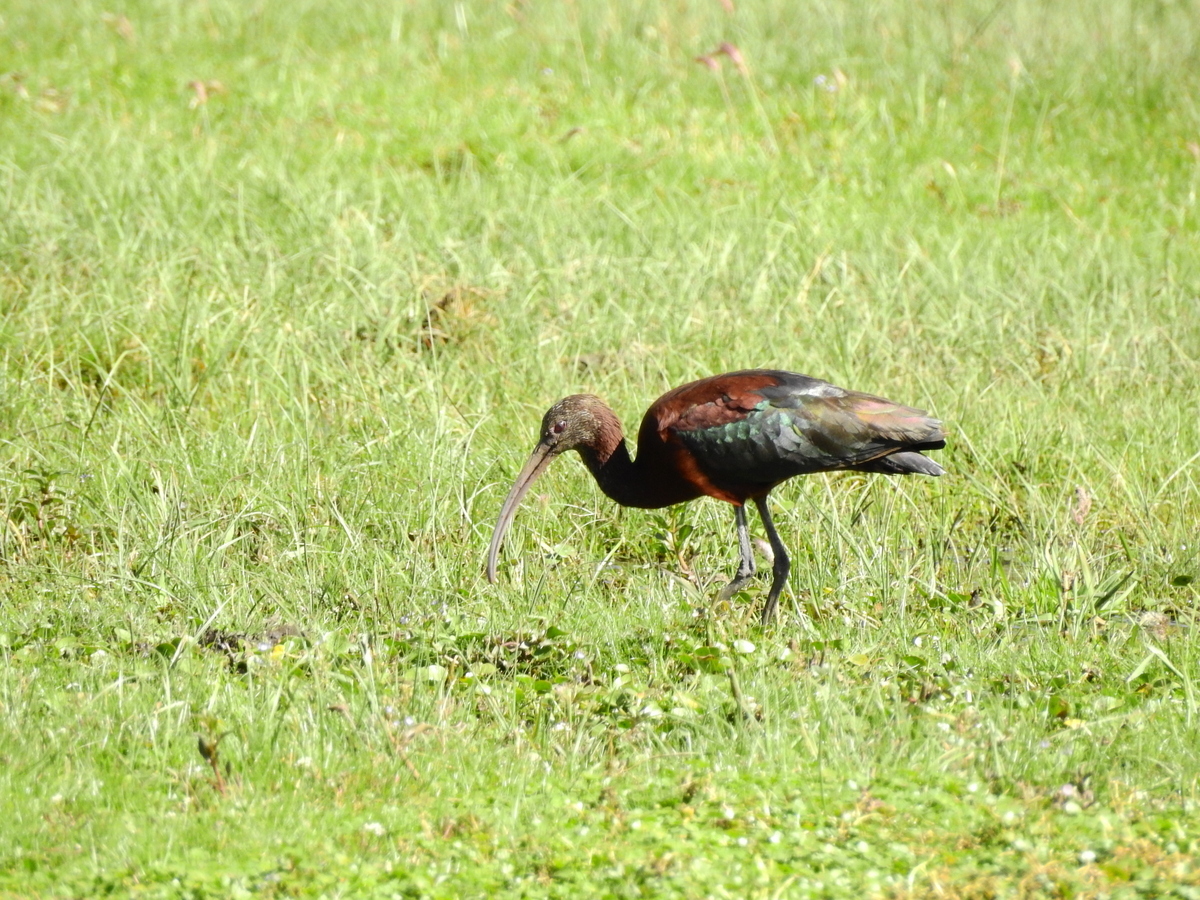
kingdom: Animalia
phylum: Chordata
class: Aves
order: Pelecaniformes
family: Threskiornithidae
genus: Plegadis
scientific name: Plegadis chihi
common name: White-faced ibis
